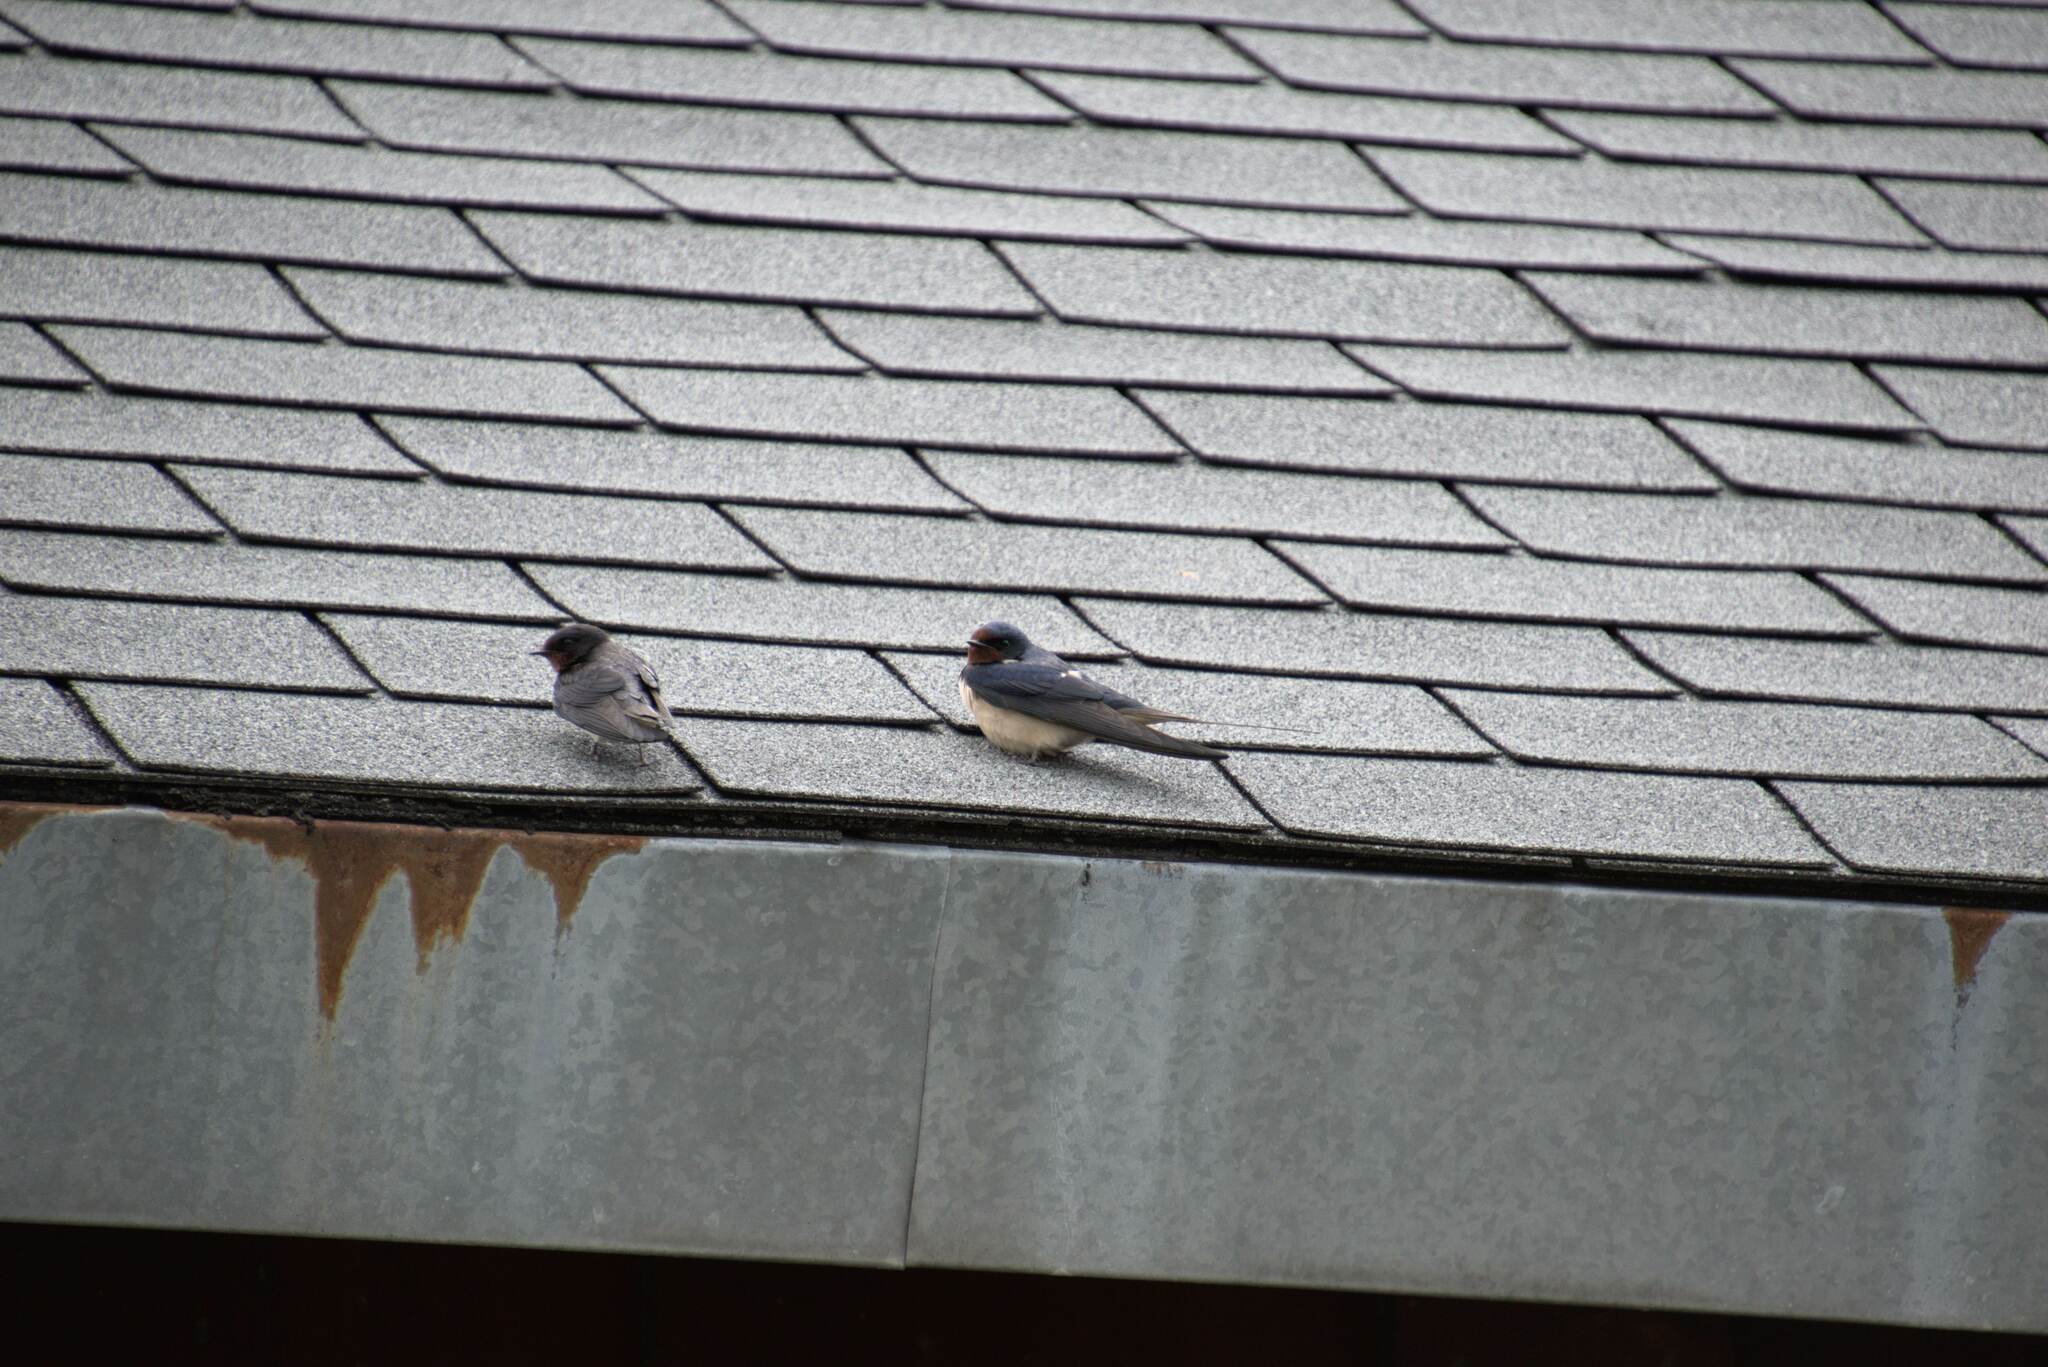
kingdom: Animalia
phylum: Chordata
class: Aves
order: Passeriformes
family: Hirundinidae
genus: Hirundo
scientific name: Hirundo rustica
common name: Barn swallow
